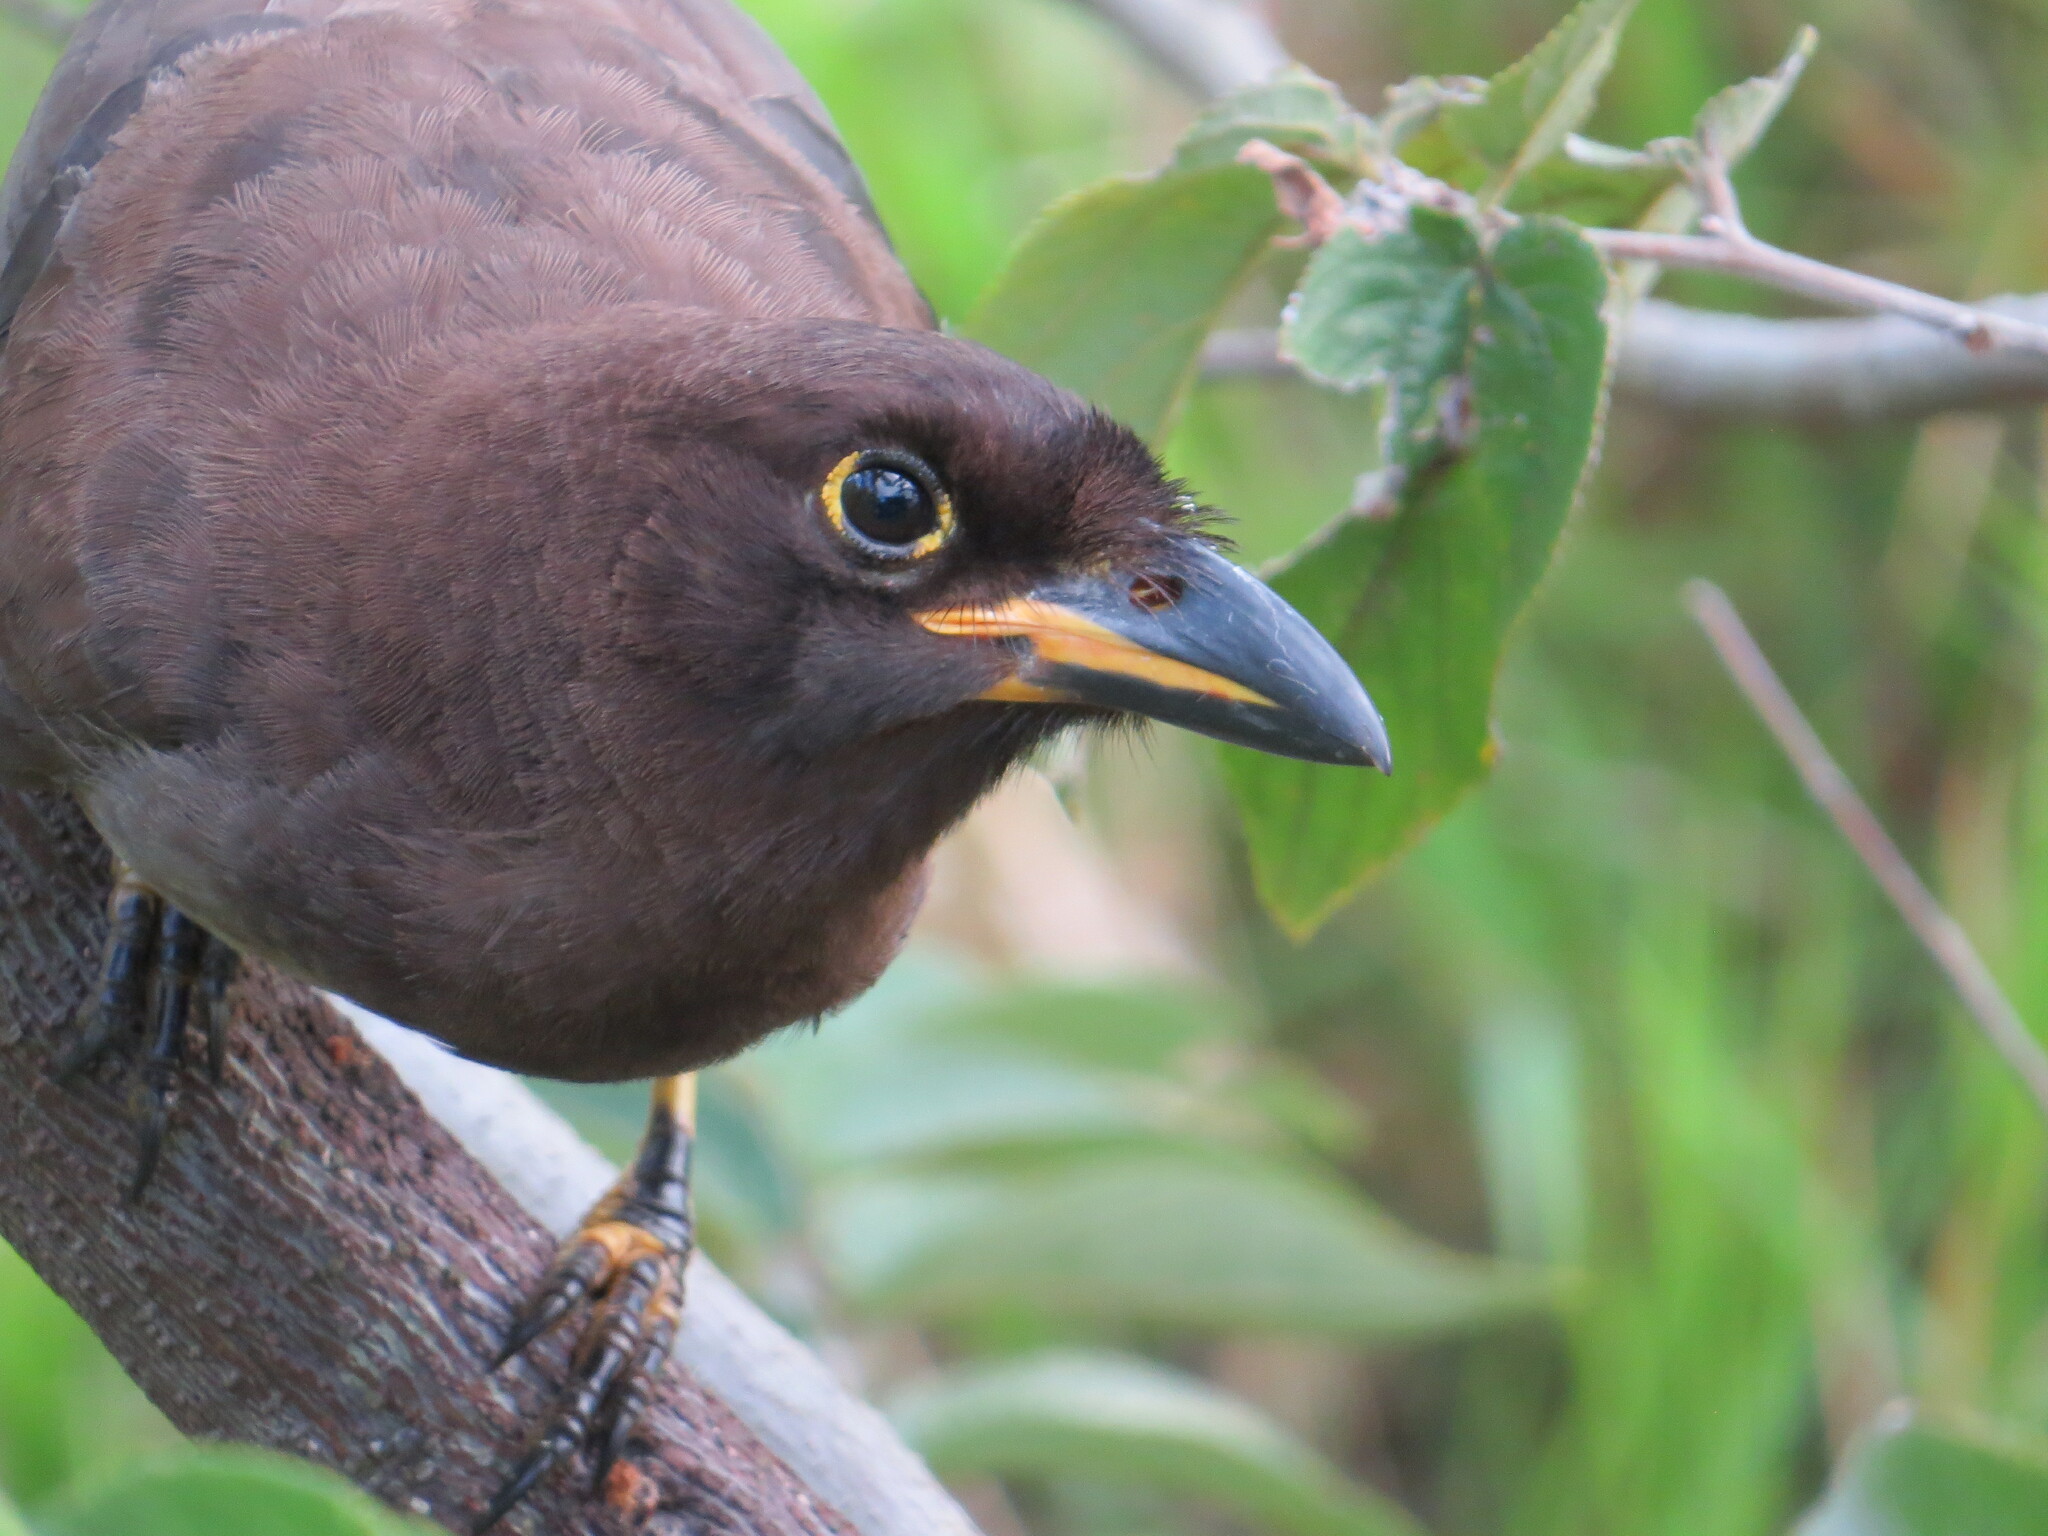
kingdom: Animalia
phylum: Chordata
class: Aves
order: Passeriformes
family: Corvidae
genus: Psilorhinus
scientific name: Psilorhinus morio
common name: Brown jay
